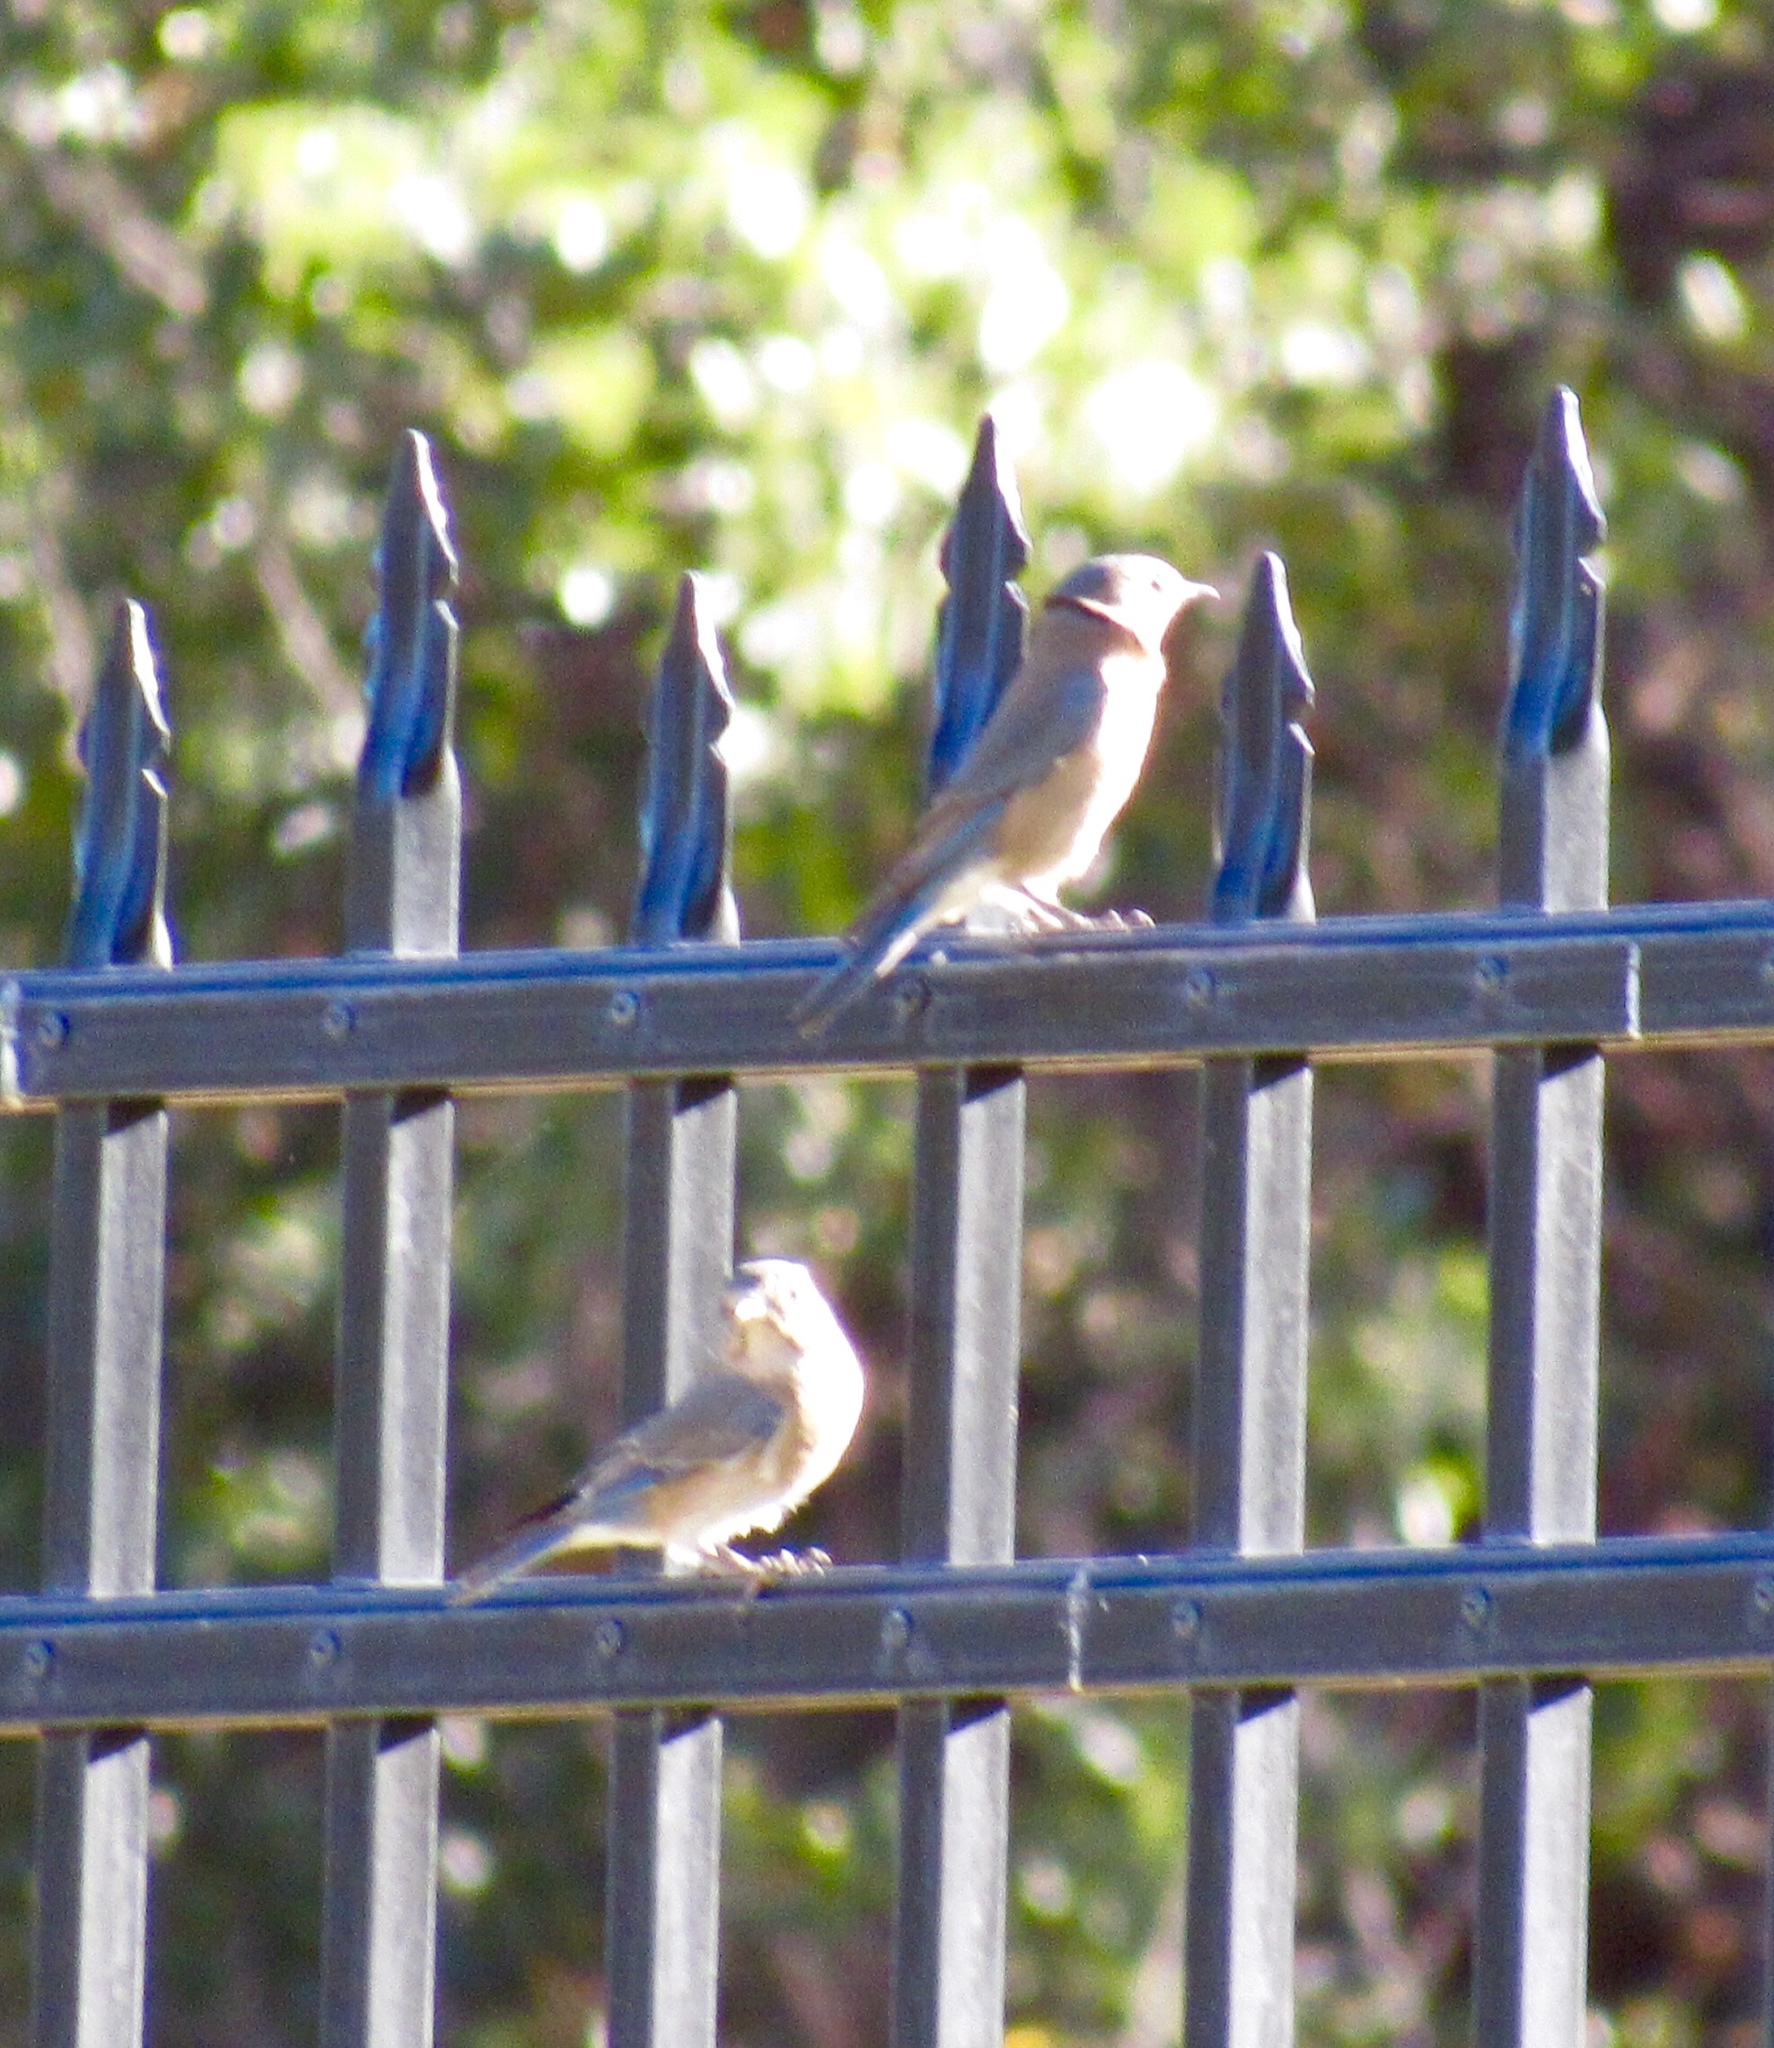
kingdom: Animalia
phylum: Chordata
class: Aves
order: Passeriformes
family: Turdidae
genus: Sialia
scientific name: Sialia sialis
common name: Eastern bluebird
